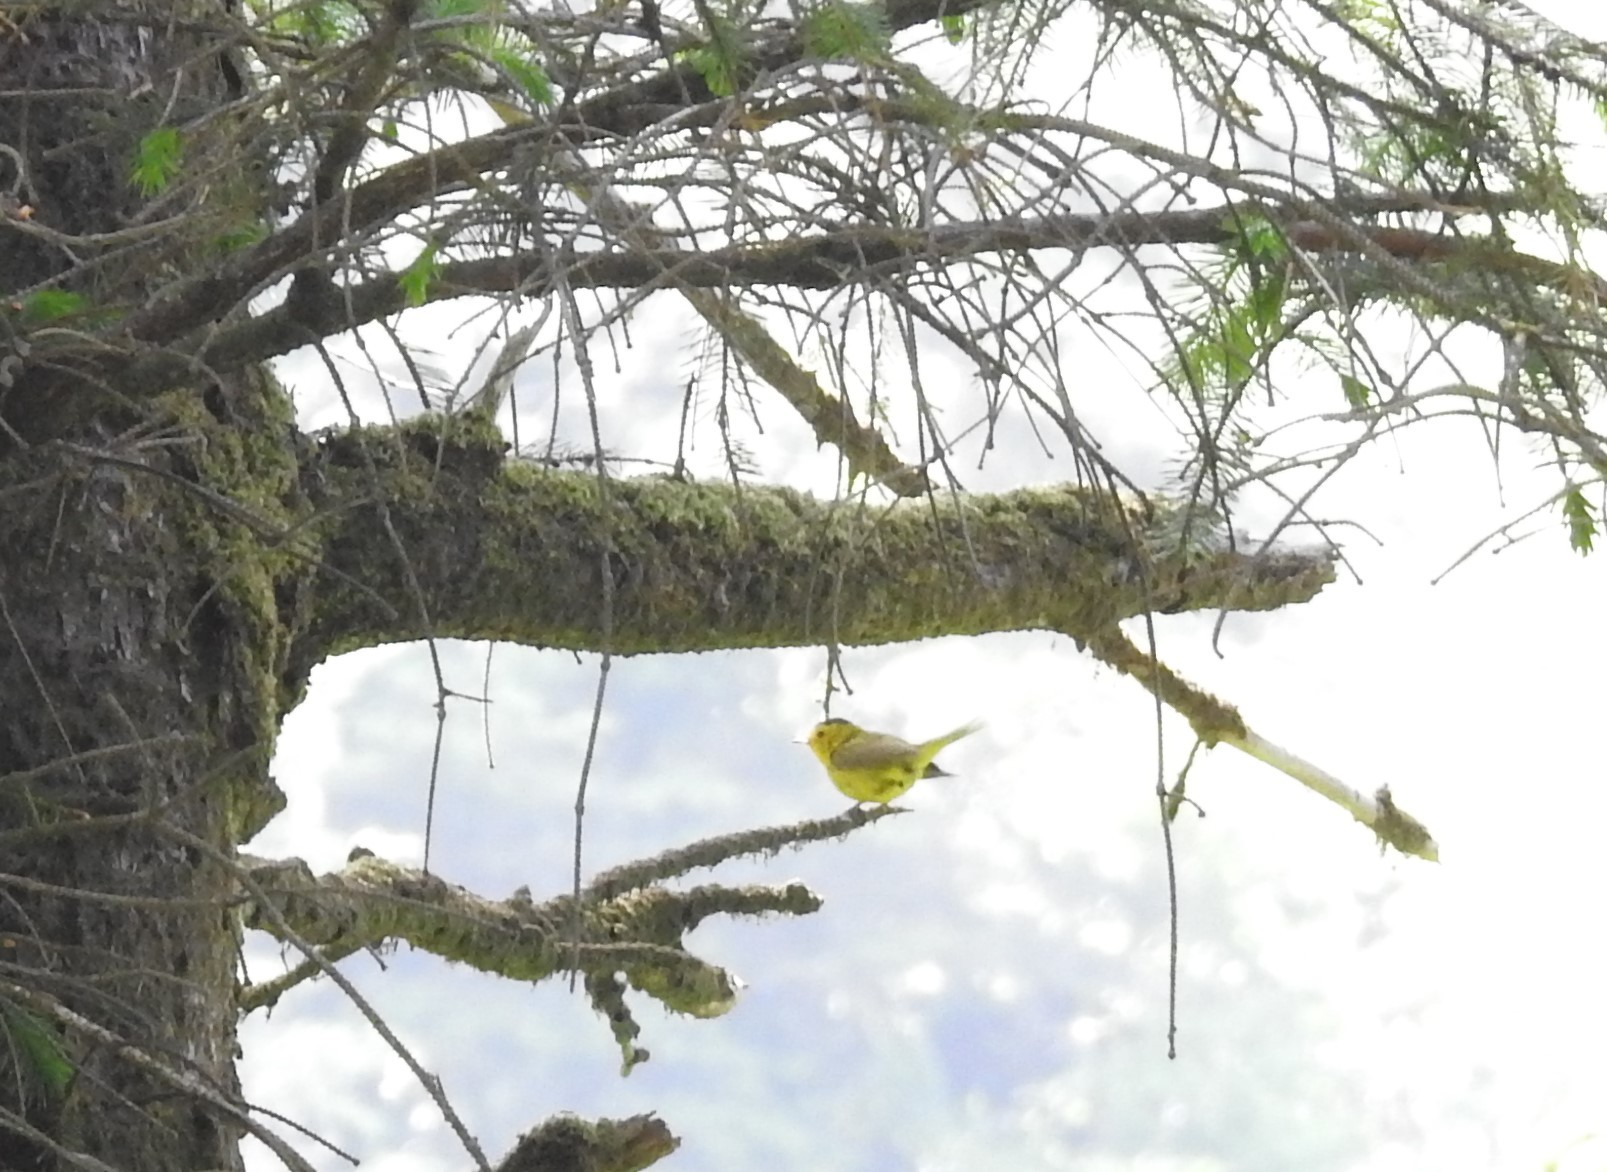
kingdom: Animalia
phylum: Chordata
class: Aves
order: Passeriformes
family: Parulidae
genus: Cardellina
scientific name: Cardellina pusilla
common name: Wilson's warbler
